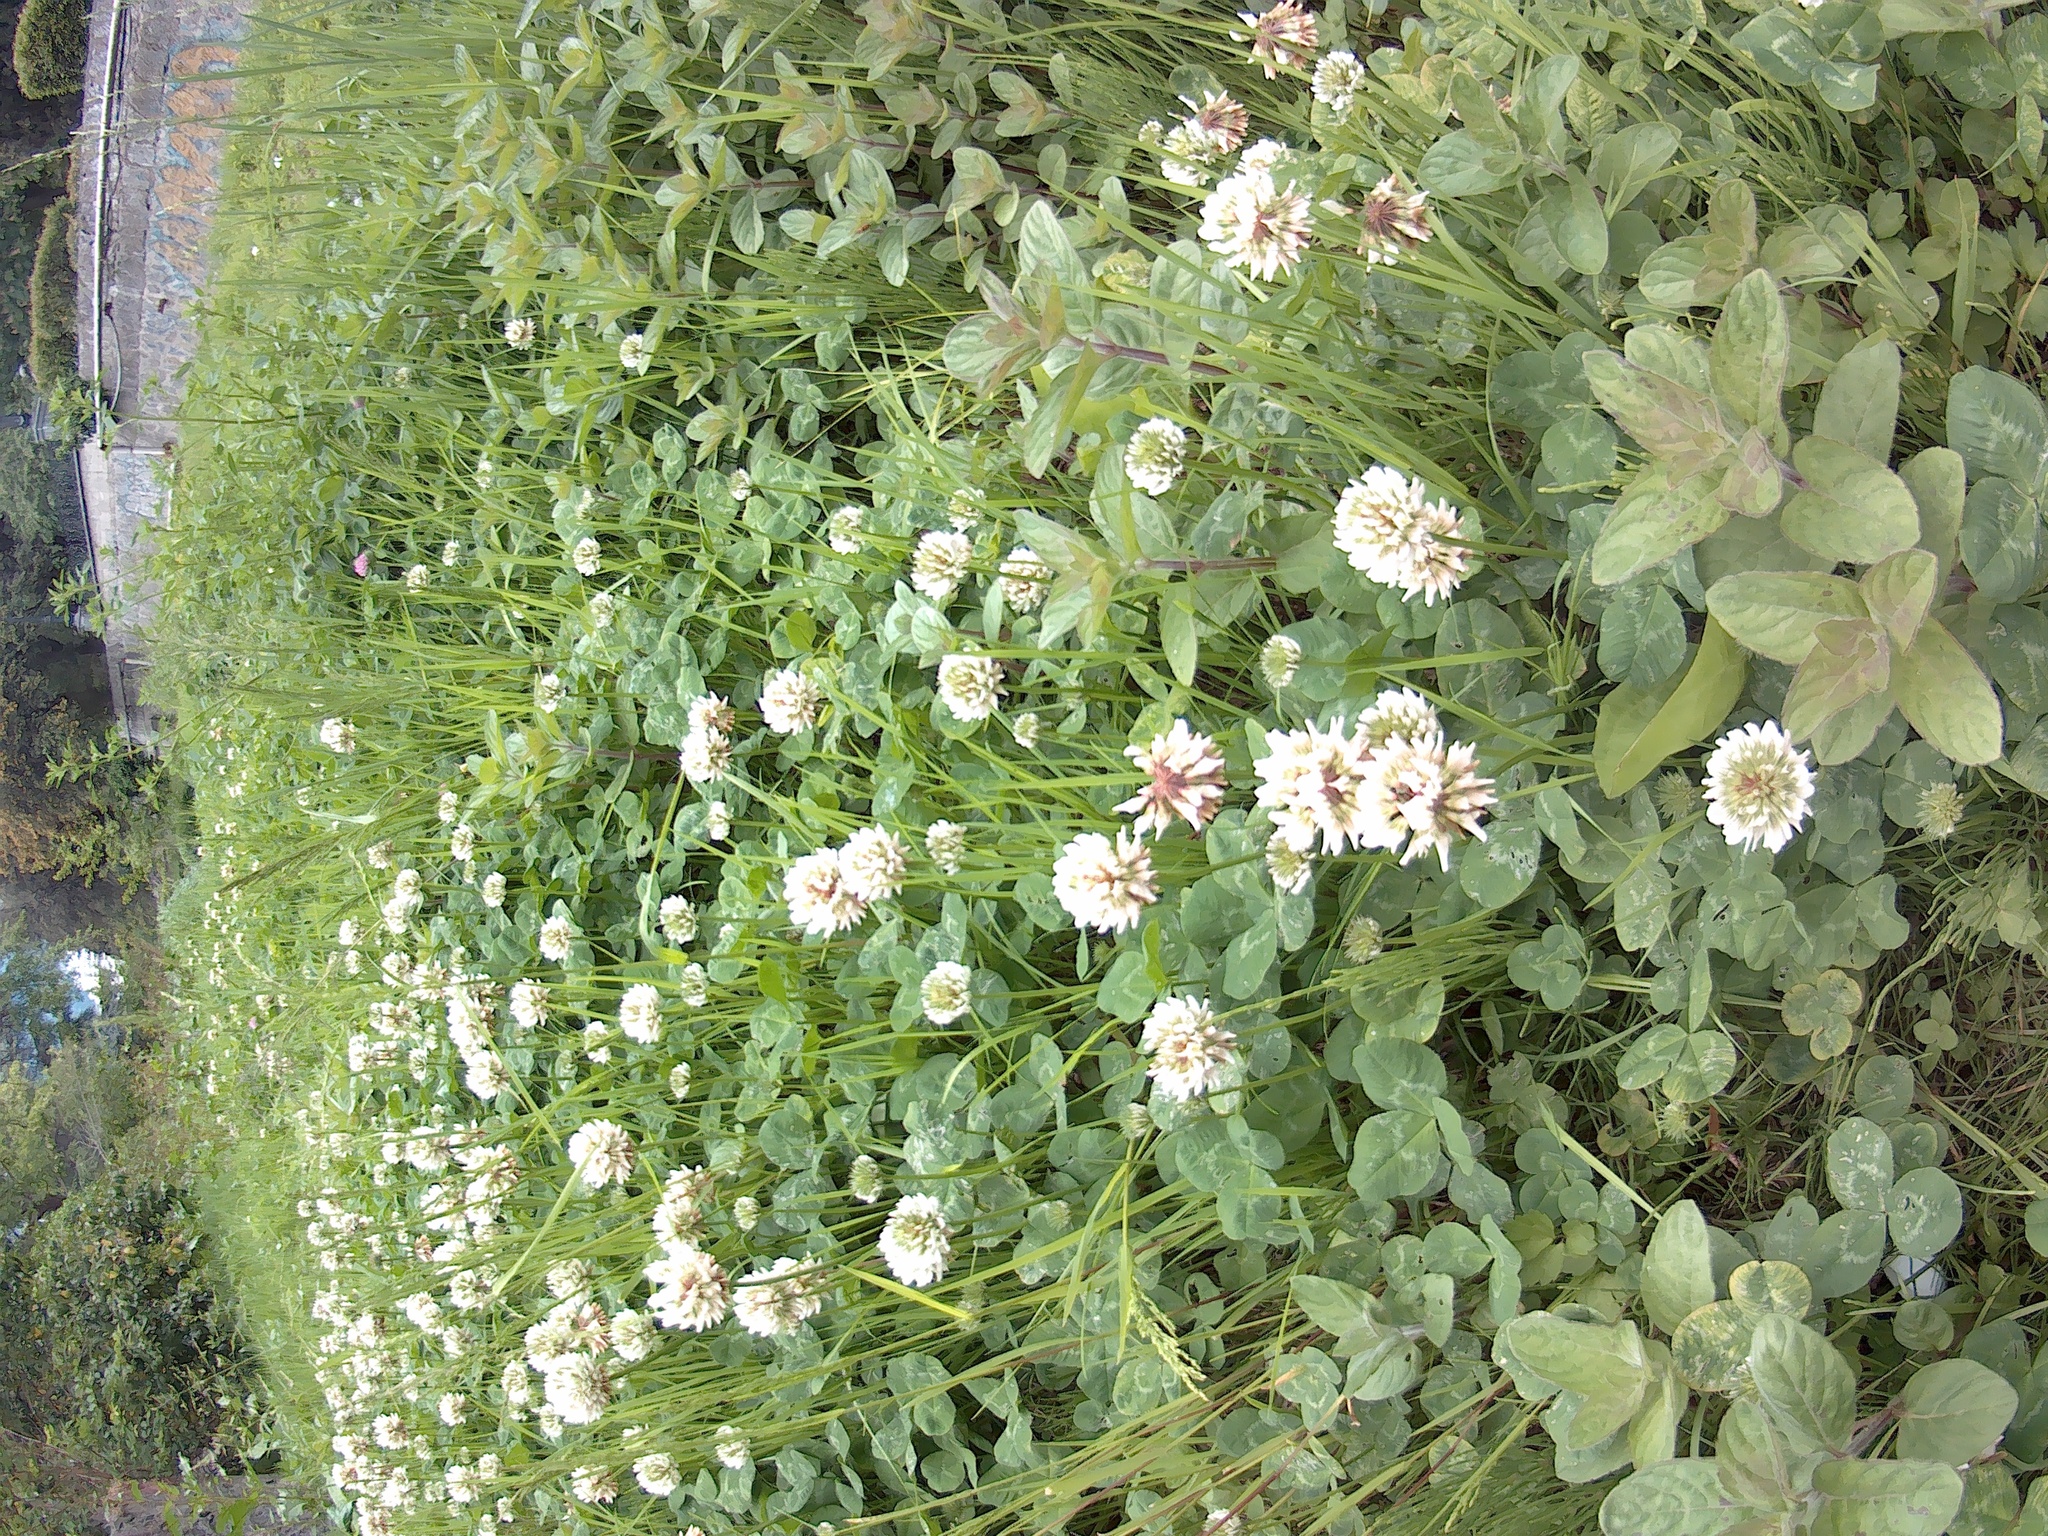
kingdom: Plantae
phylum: Tracheophyta
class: Magnoliopsida
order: Fabales
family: Fabaceae
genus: Trifolium
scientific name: Trifolium repens
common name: White clover
